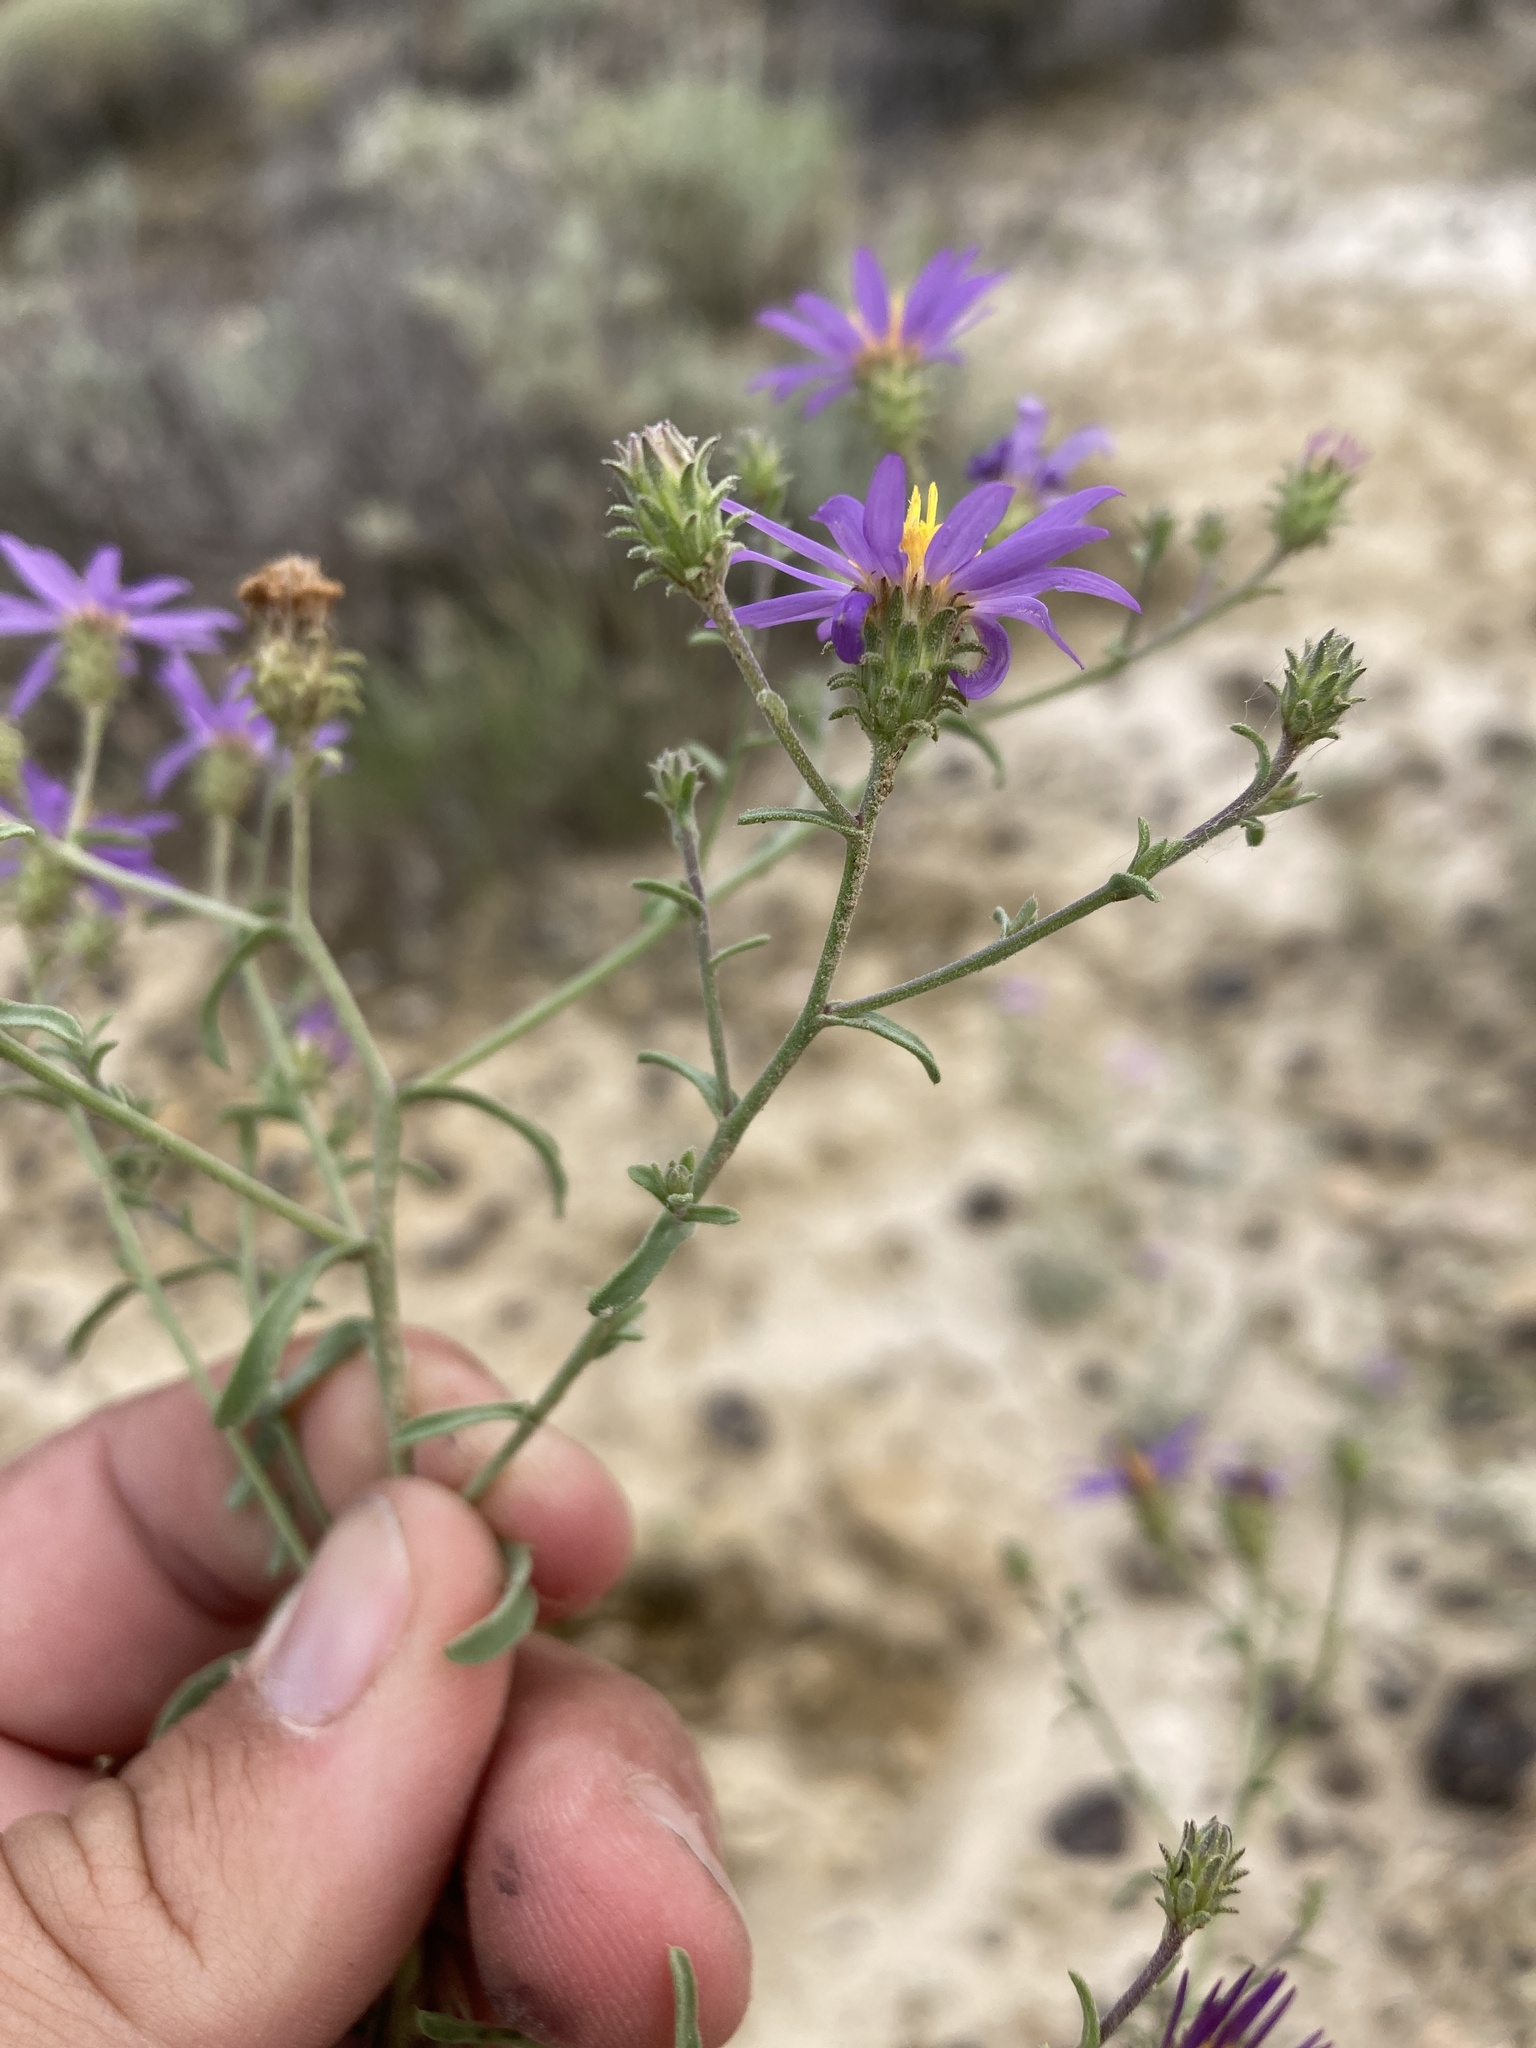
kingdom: Plantae
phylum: Tracheophyta
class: Magnoliopsida
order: Asterales
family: Asteraceae
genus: Dieteria
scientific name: Dieteria canescens
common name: Hoary-aster
